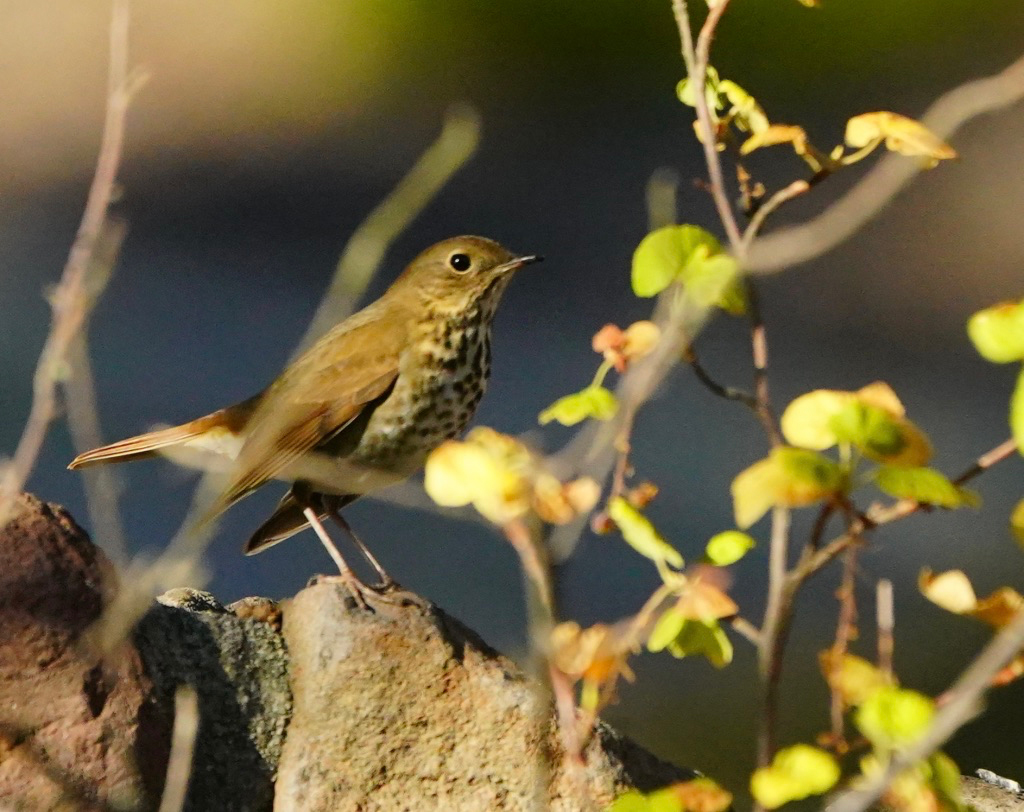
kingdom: Animalia
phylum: Chordata
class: Aves
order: Passeriformes
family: Turdidae
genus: Catharus
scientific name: Catharus guttatus
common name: Hermit thrush
